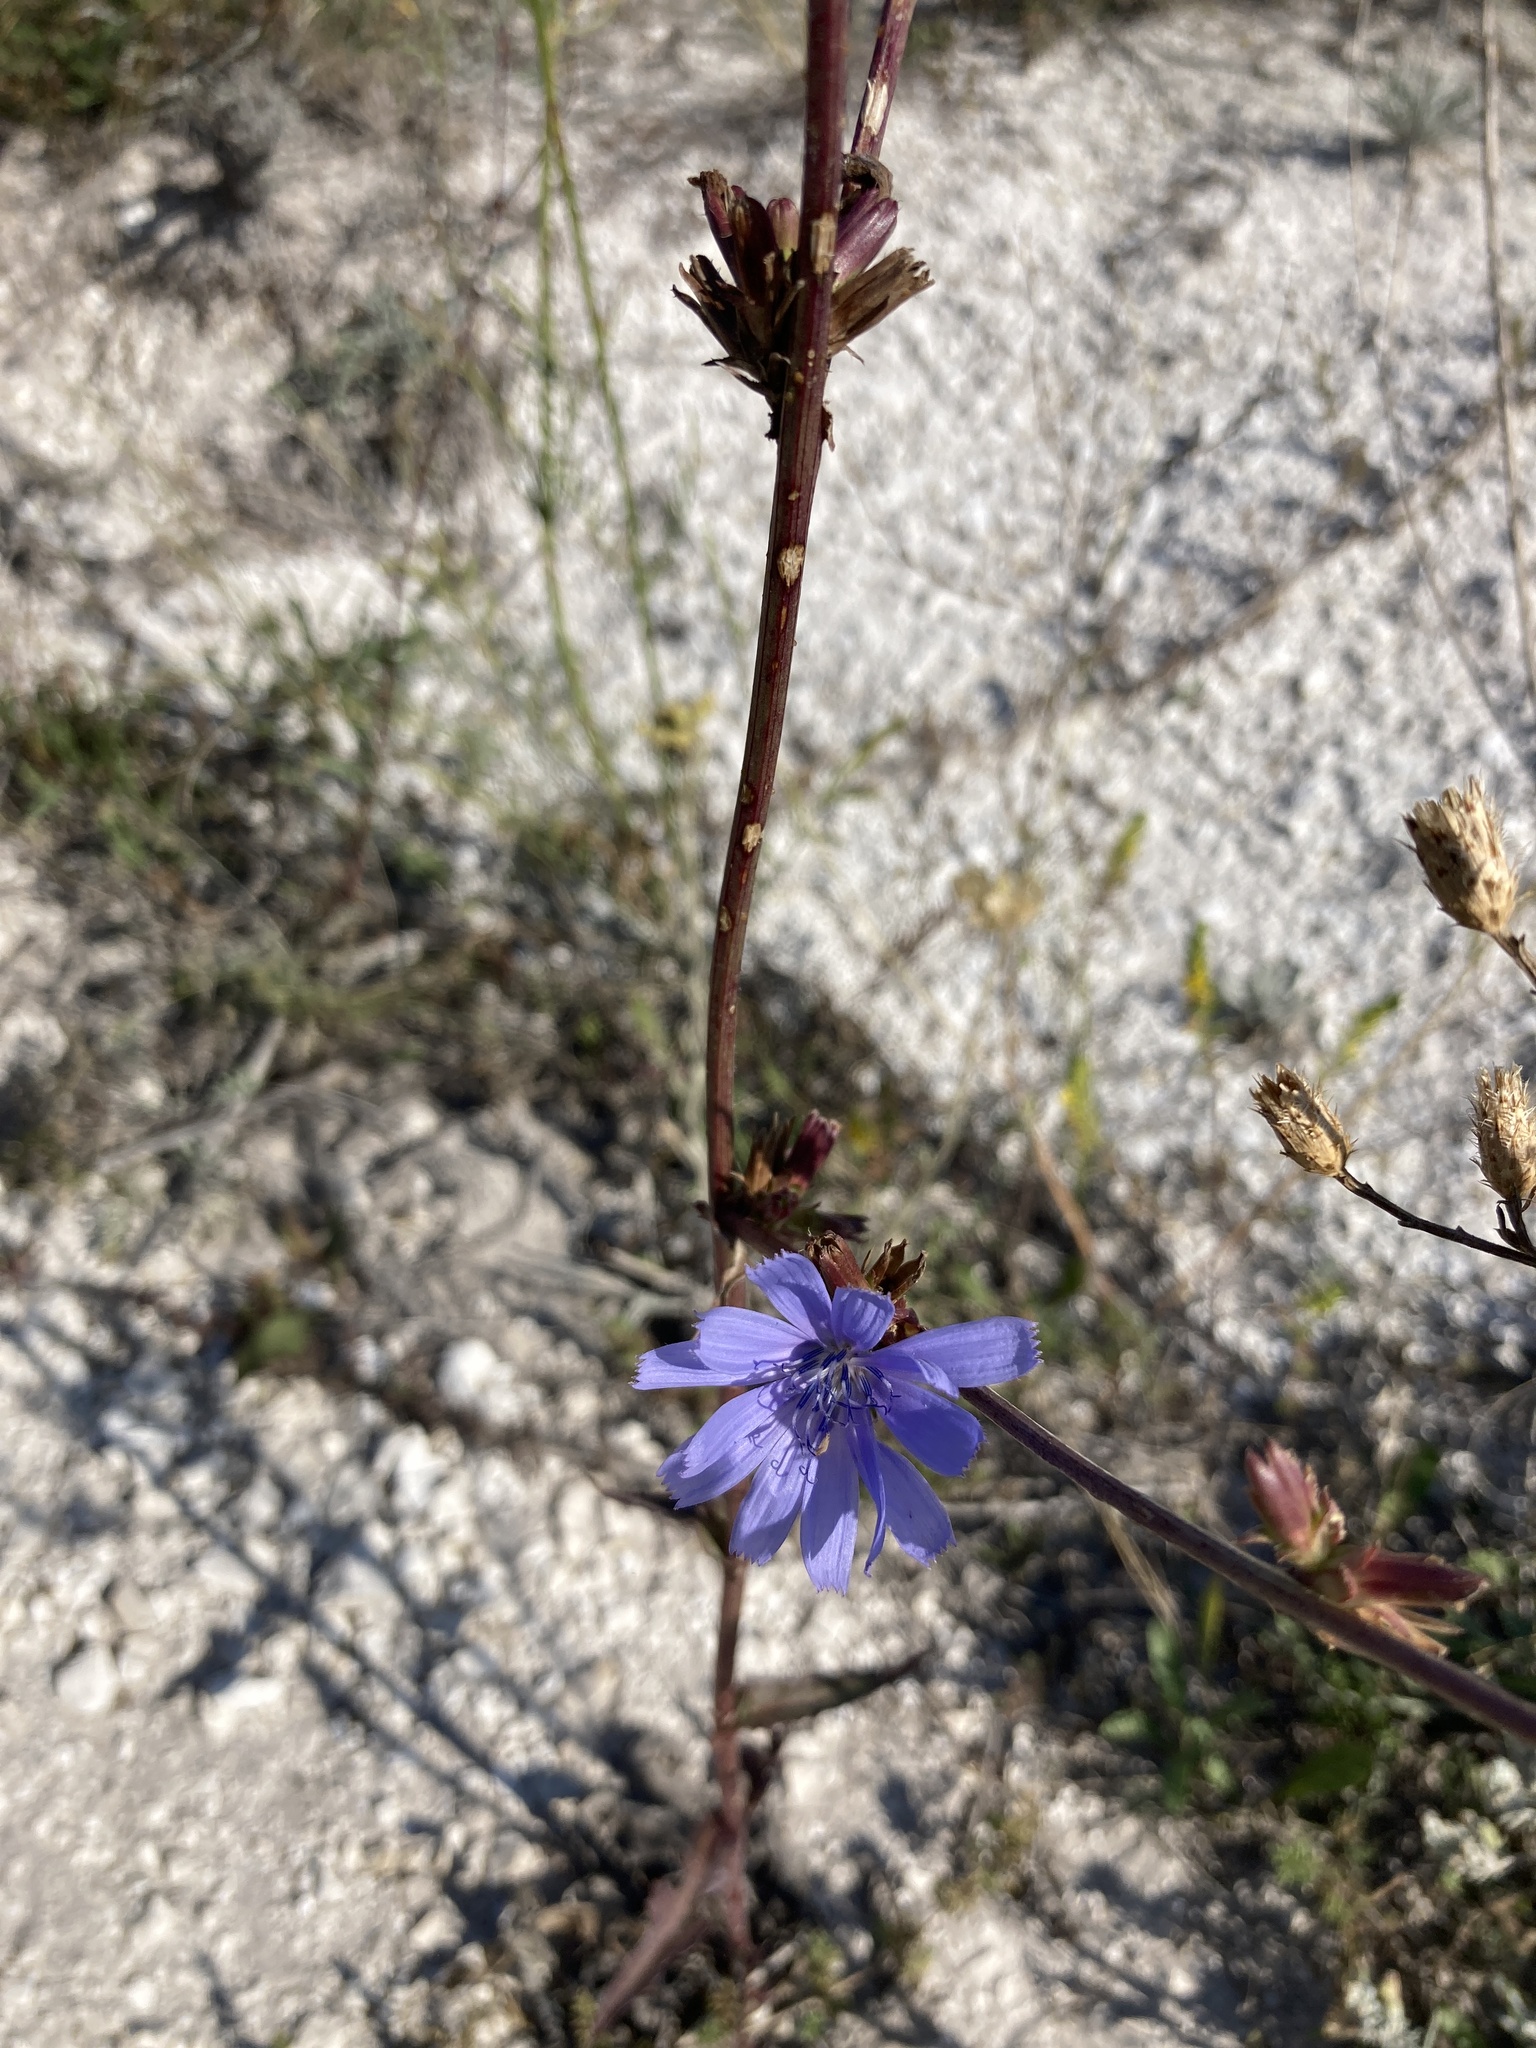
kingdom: Plantae
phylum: Tracheophyta
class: Magnoliopsida
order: Asterales
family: Asteraceae
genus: Cichorium
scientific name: Cichorium intybus
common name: Chicory
